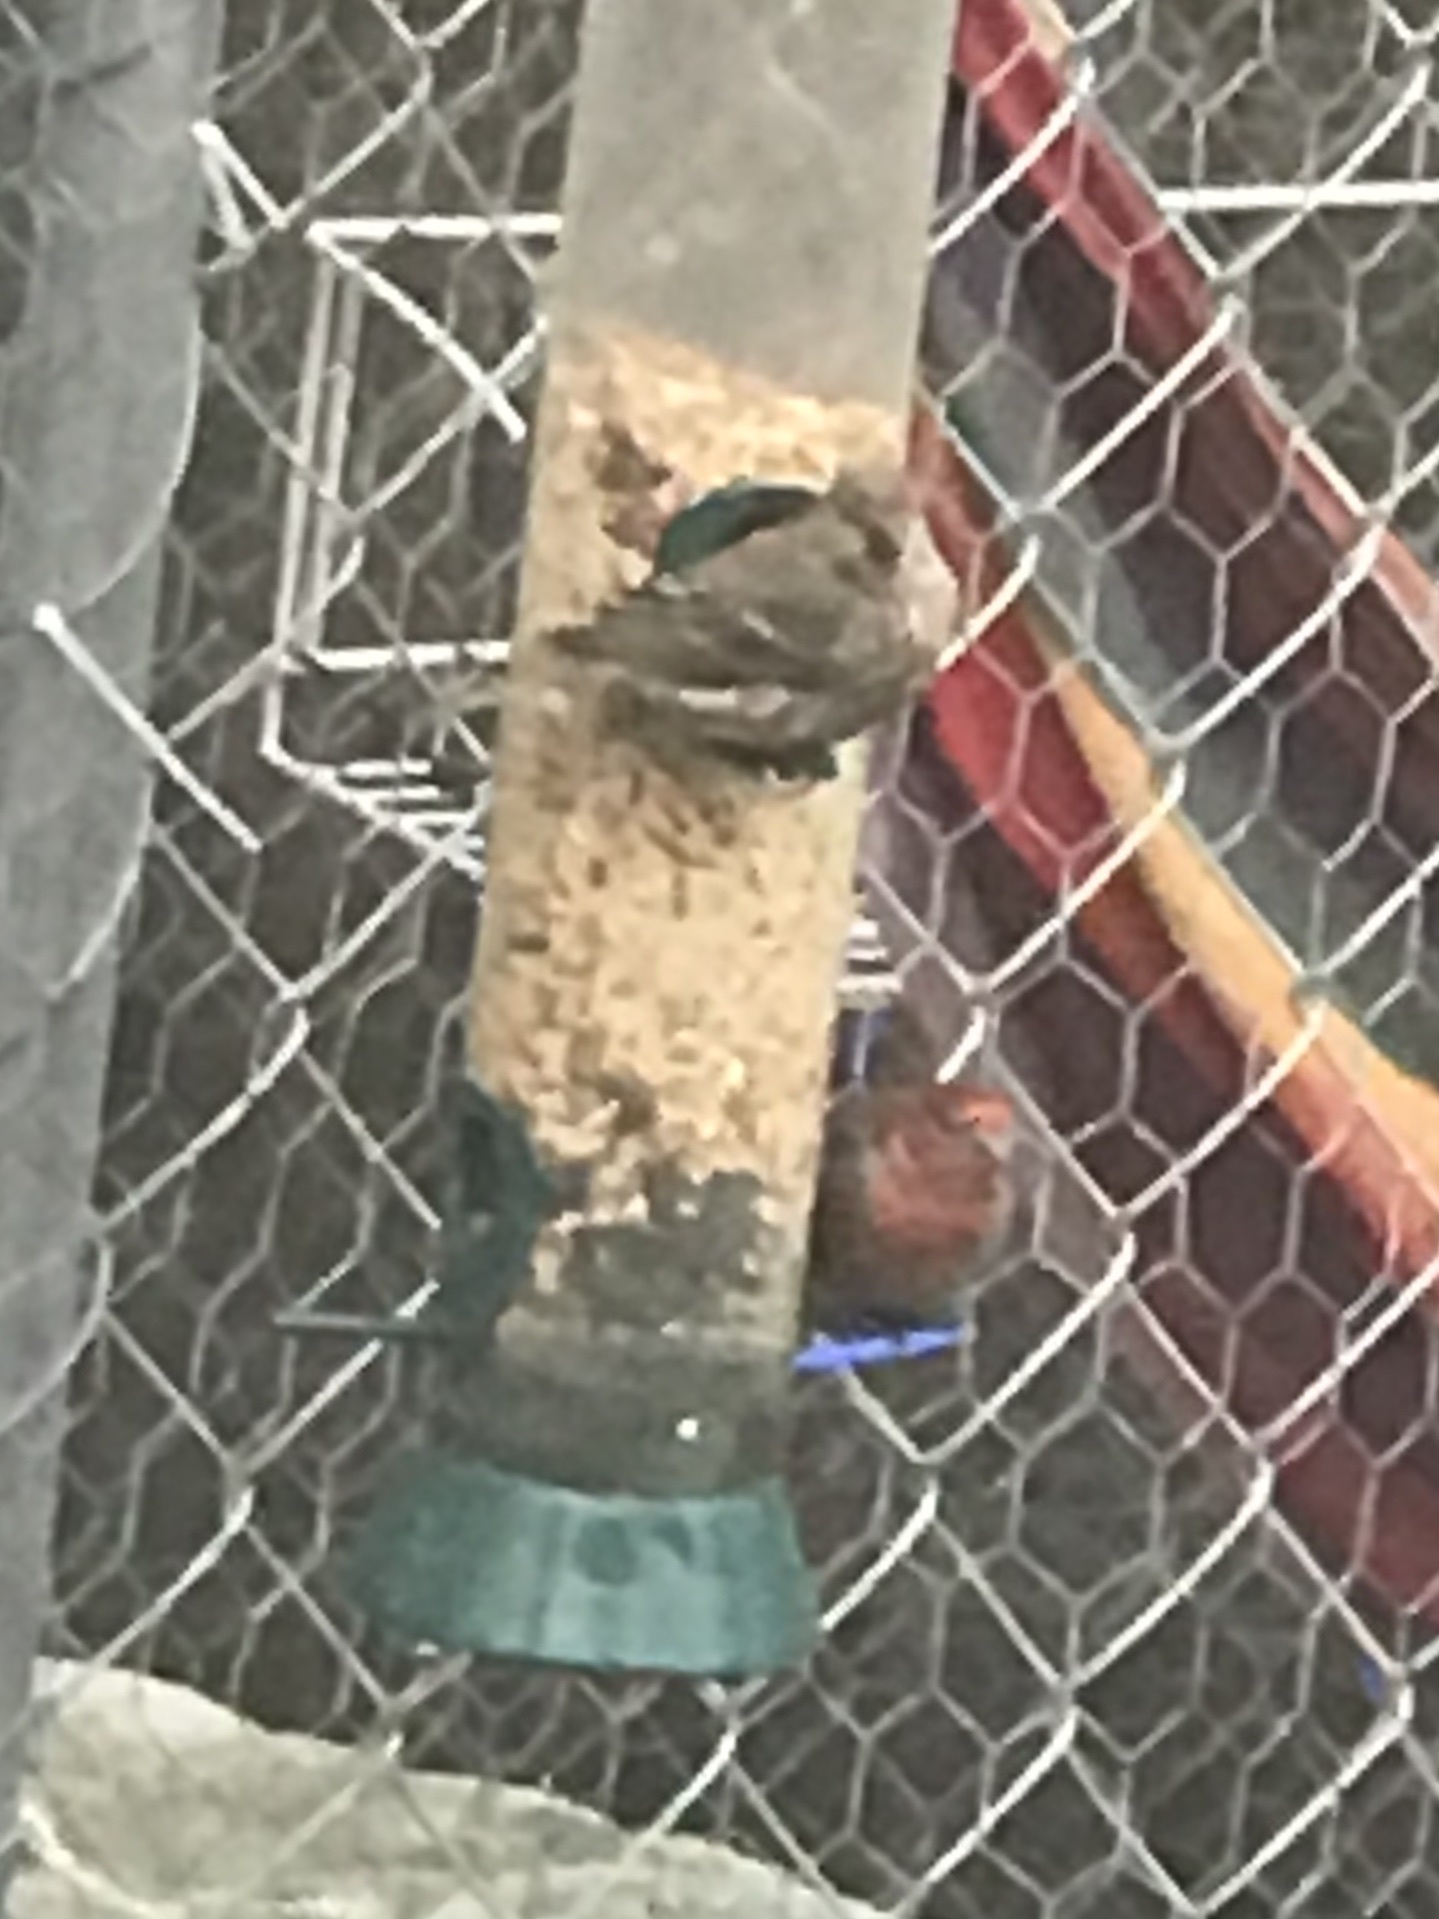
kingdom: Animalia
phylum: Chordata
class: Aves
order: Passeriformes
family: Fringillidae
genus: Haemorhous
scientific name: Haemorhous mexicanus
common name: House finch
